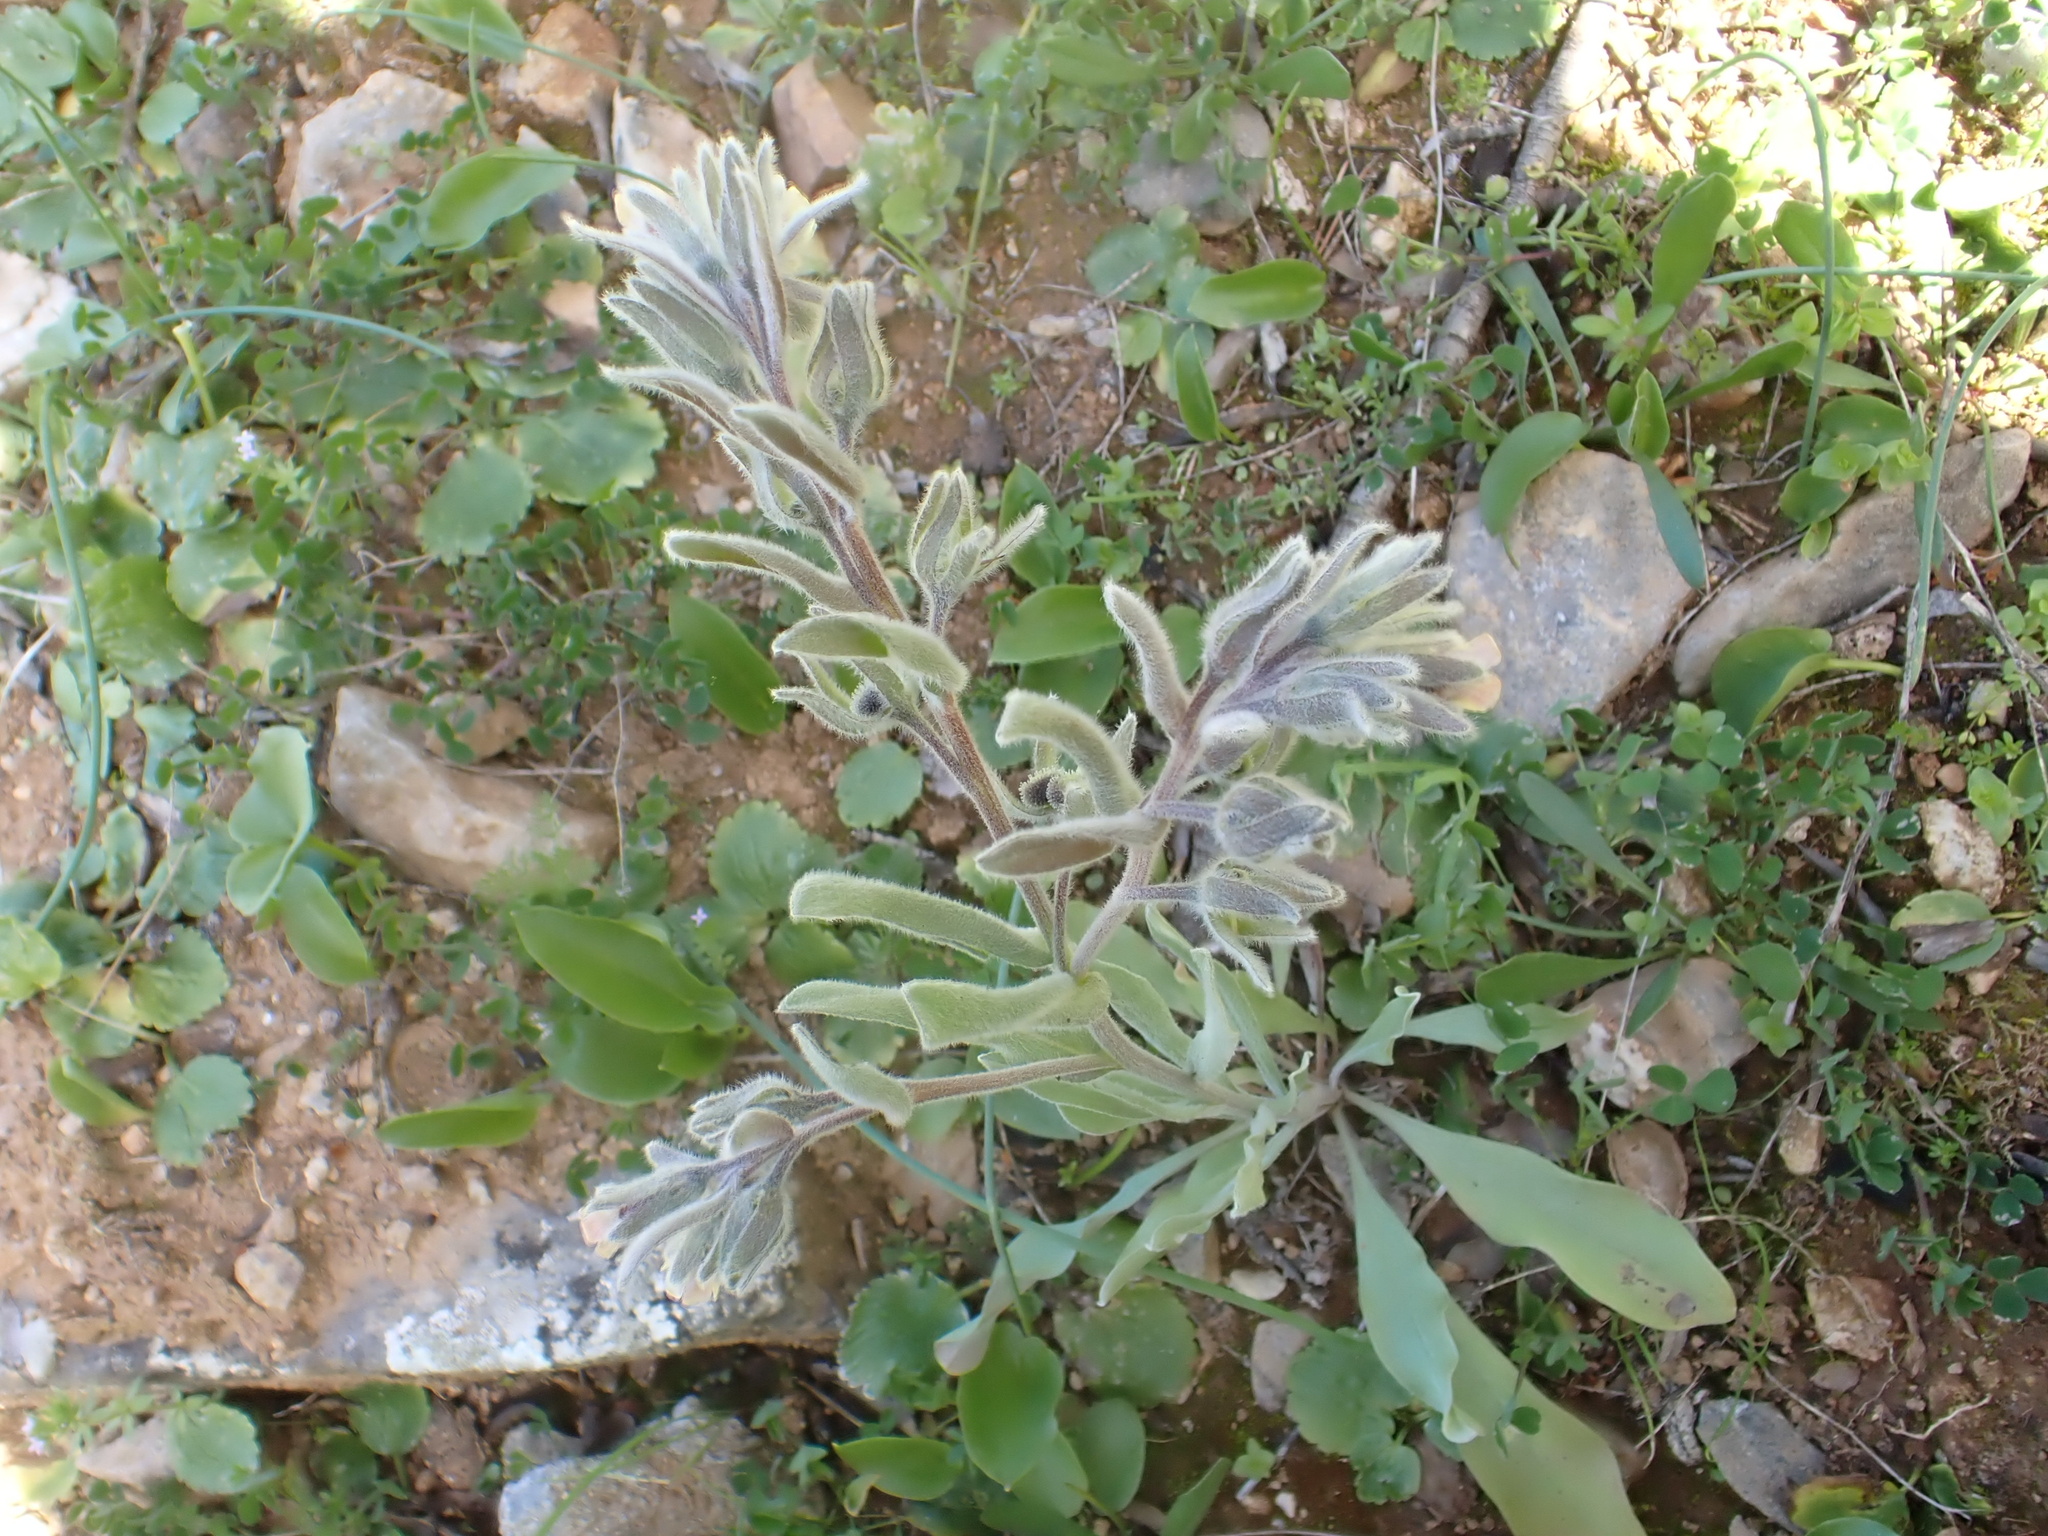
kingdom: Plantae
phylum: Tracheophyta
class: Magnoliopsida
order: Boraginales
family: Boraginaceae
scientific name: Boraginaceae
